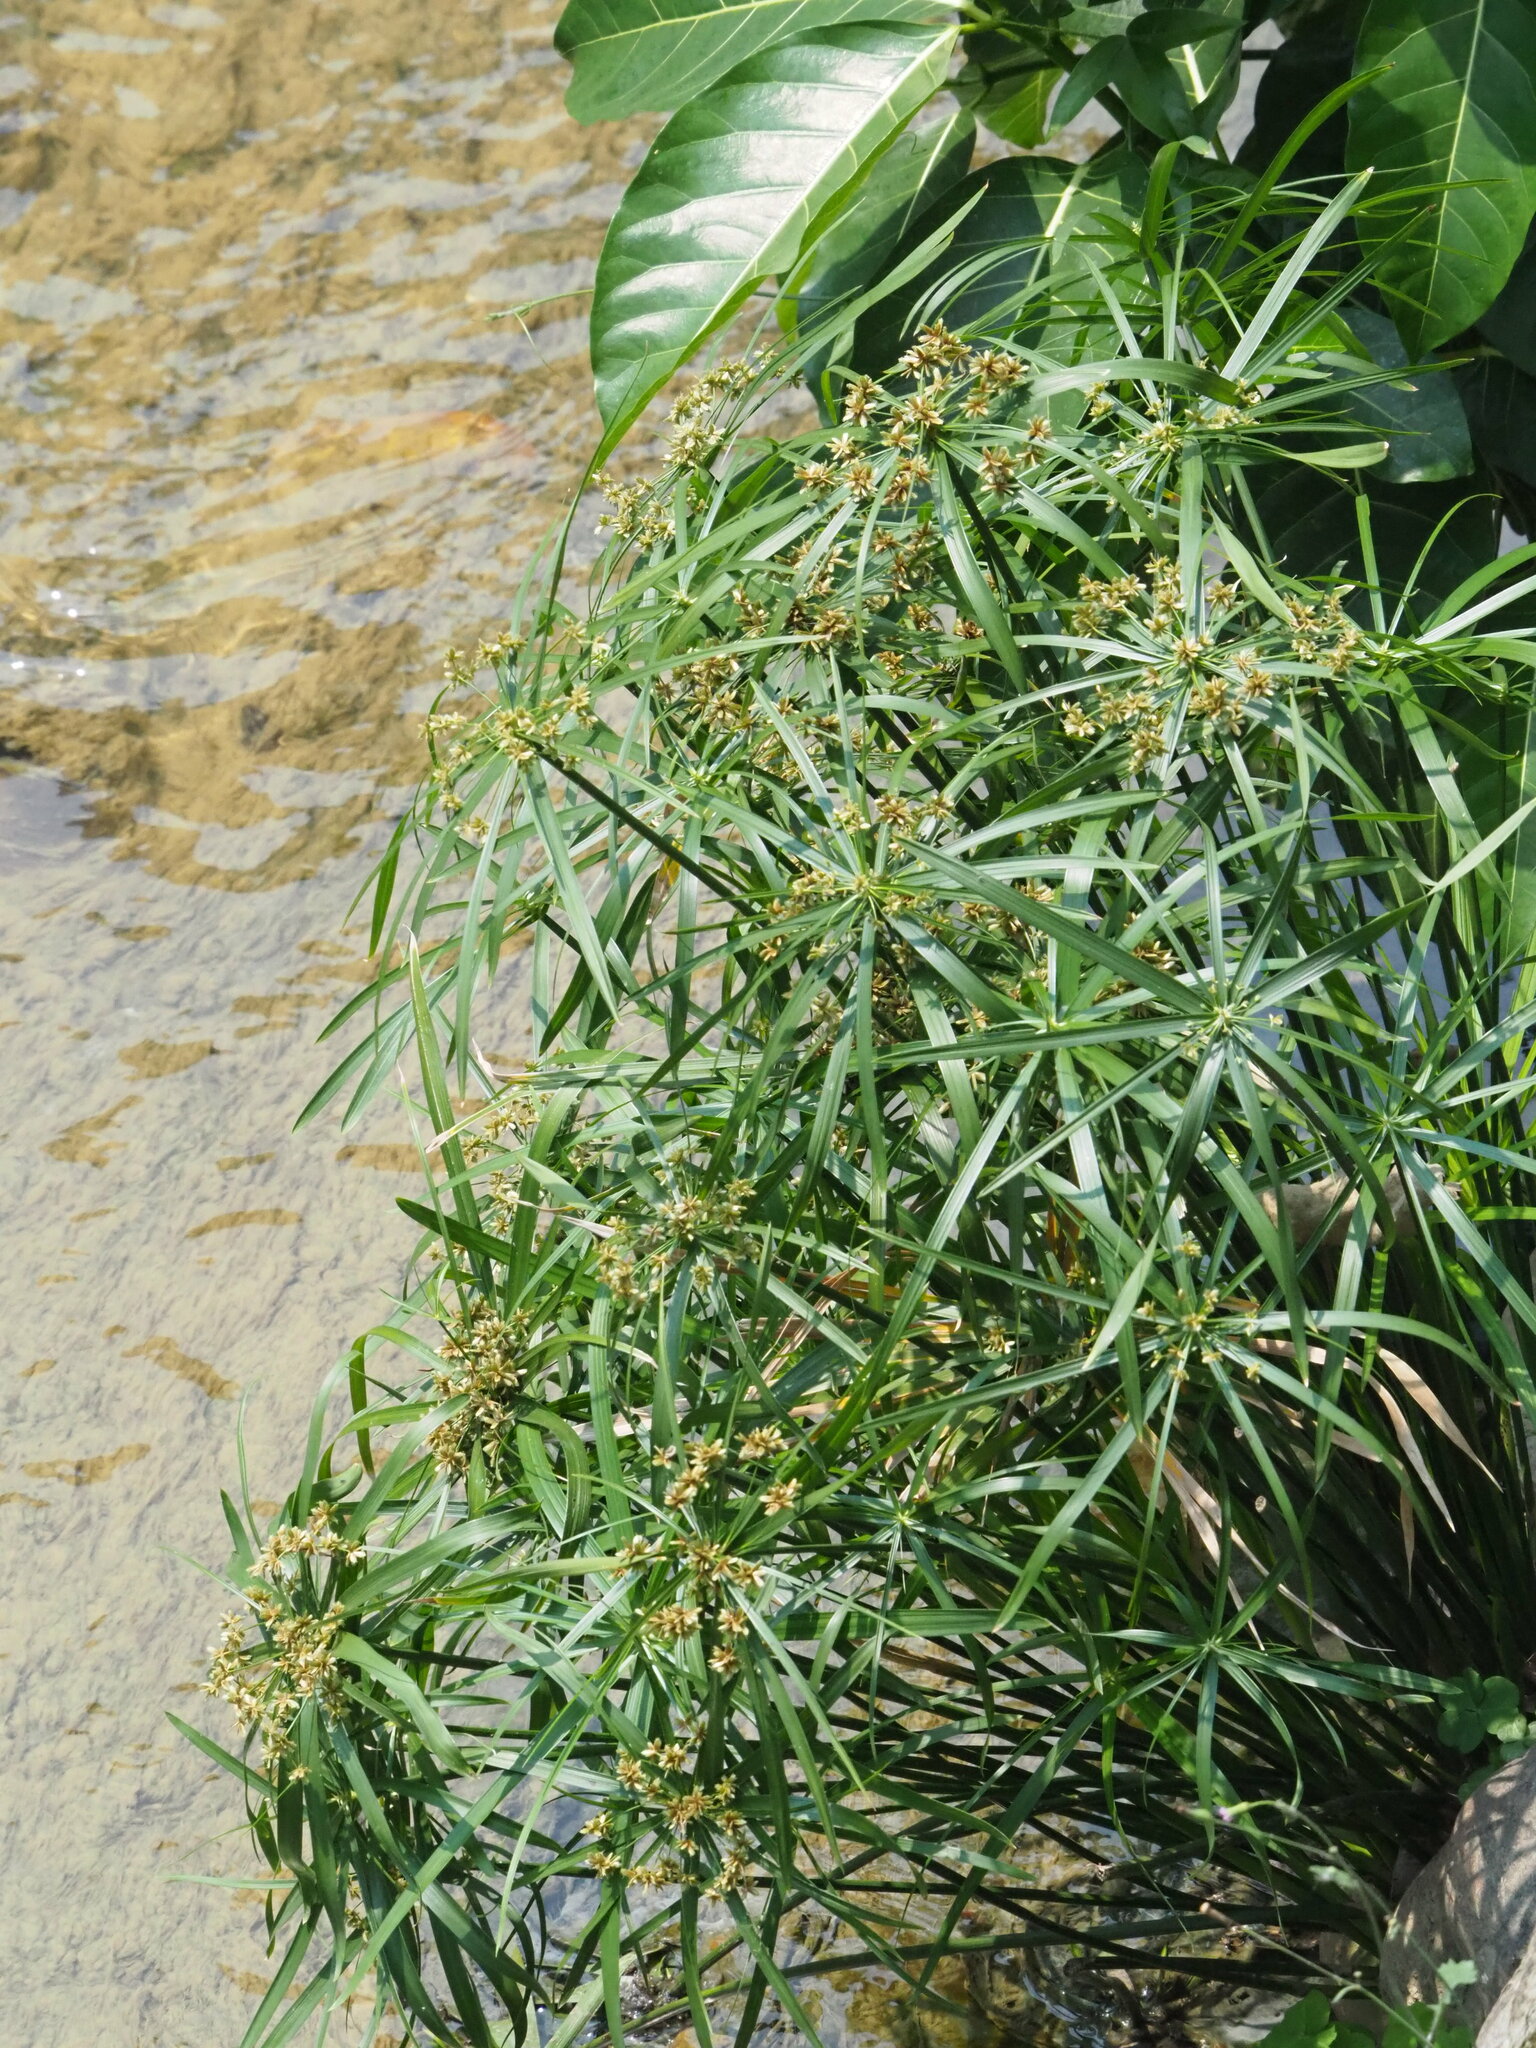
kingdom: Plantae
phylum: Tracheophyta
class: Liliopsida
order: Poales
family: Cyperaceae
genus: Cyperus
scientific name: Cyperus alternifolius
